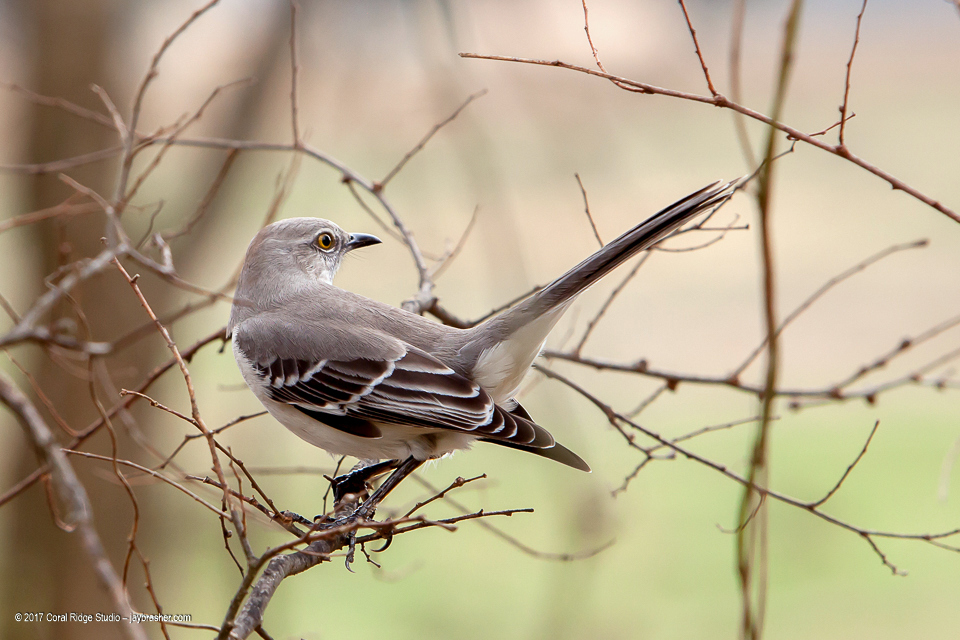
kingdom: Animalia
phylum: Chordata
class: Aves
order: Passeriformes
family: Mimidae
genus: Mimus
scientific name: Mimus polyglottos
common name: Northern mockingbird
